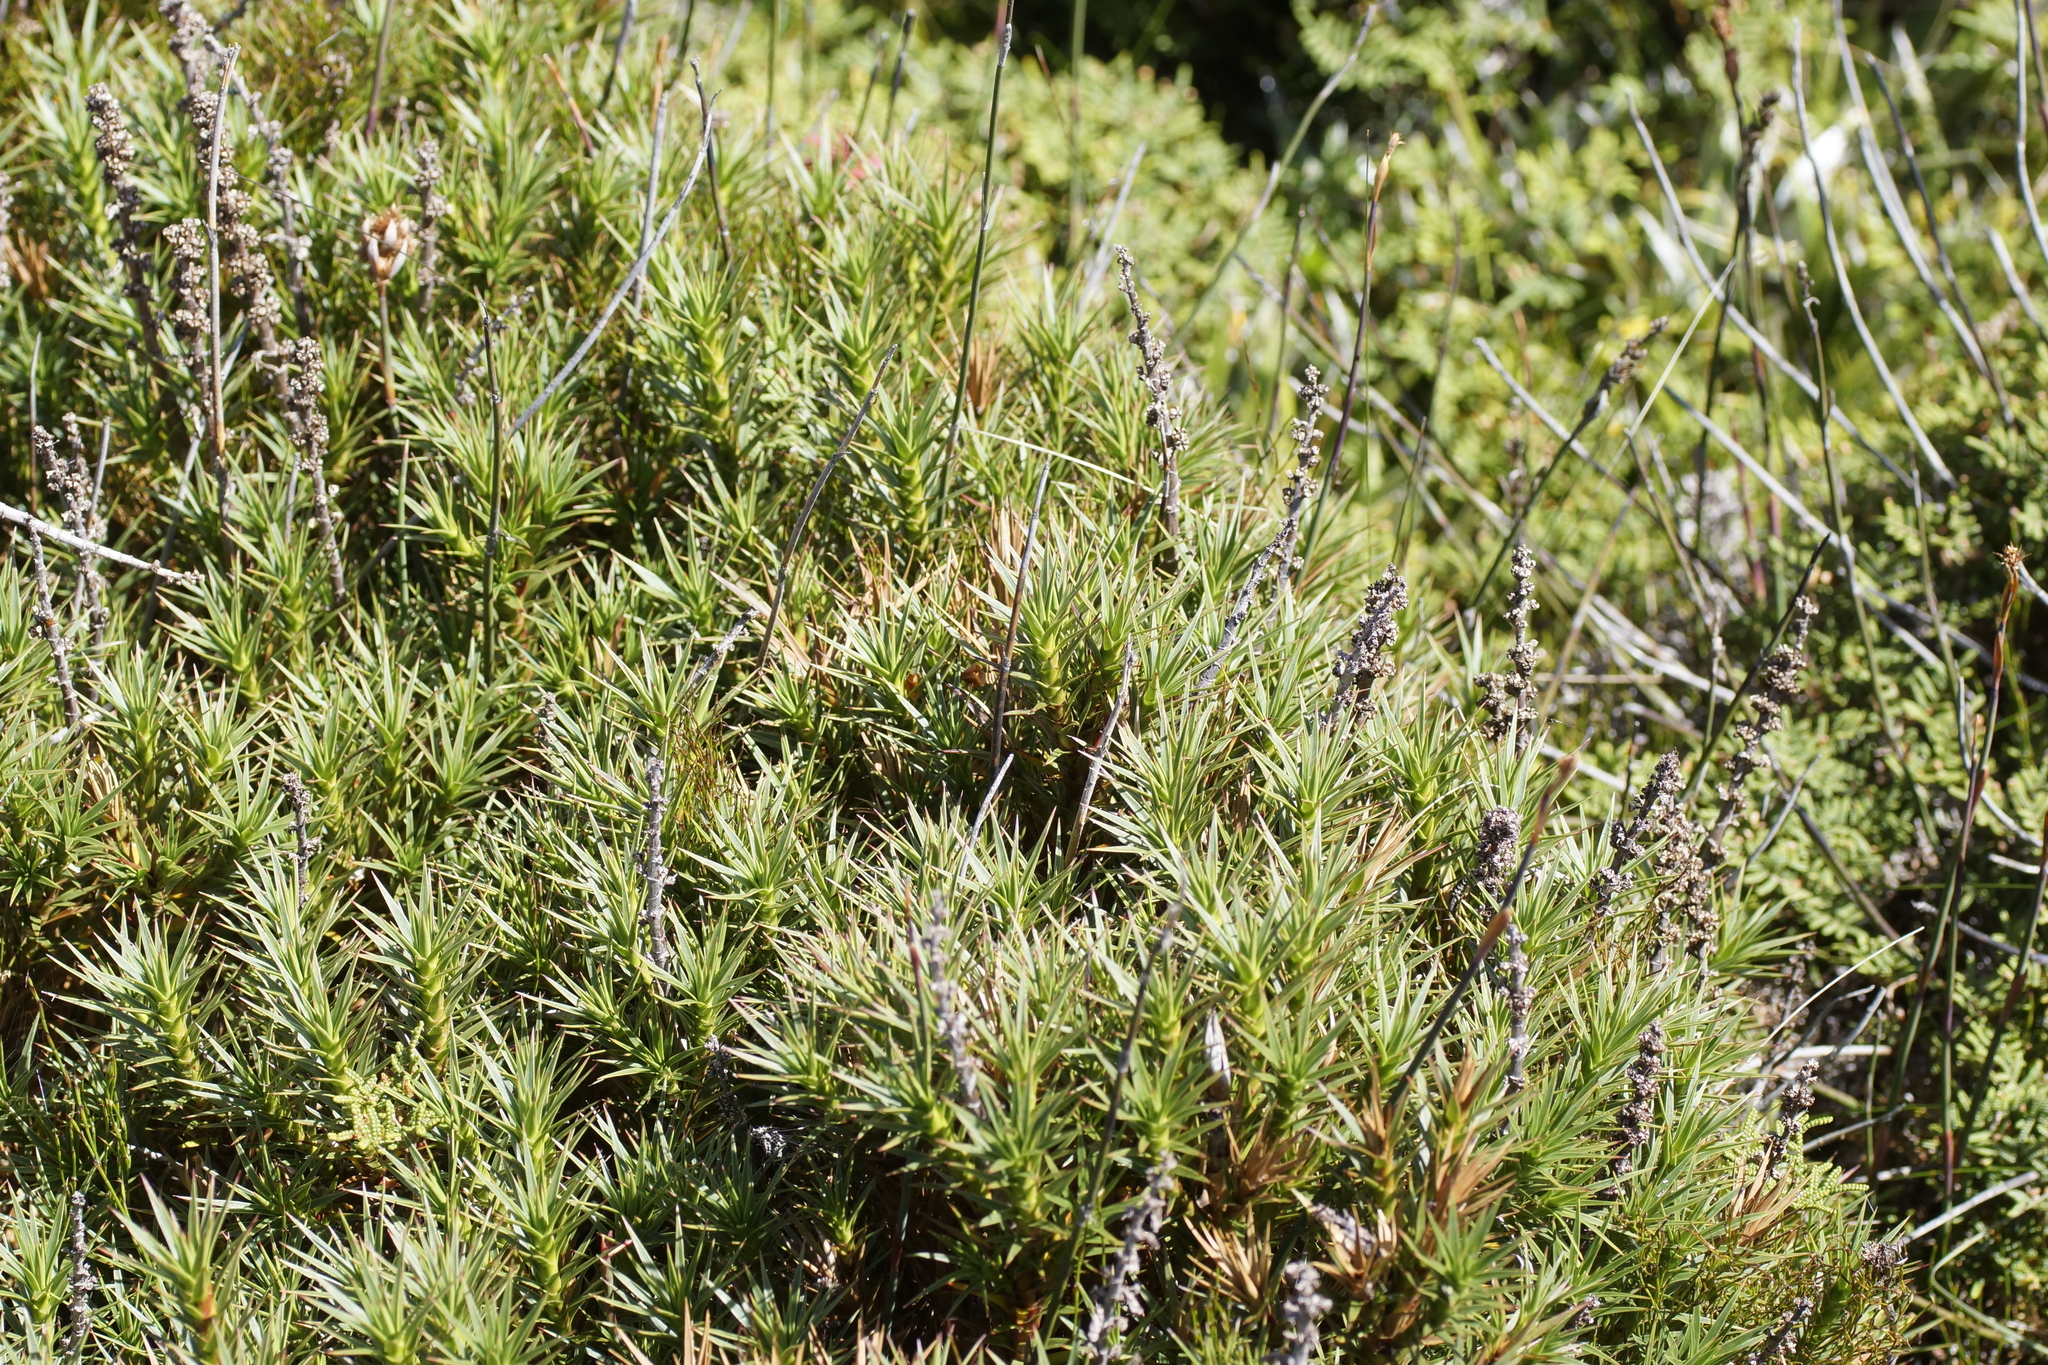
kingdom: Plantae
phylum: Tracheophyta
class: Magnoliopsida
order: Ericales
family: Ericaceae
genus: Dracophyllum
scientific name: Dracophyllum persistentifolium
